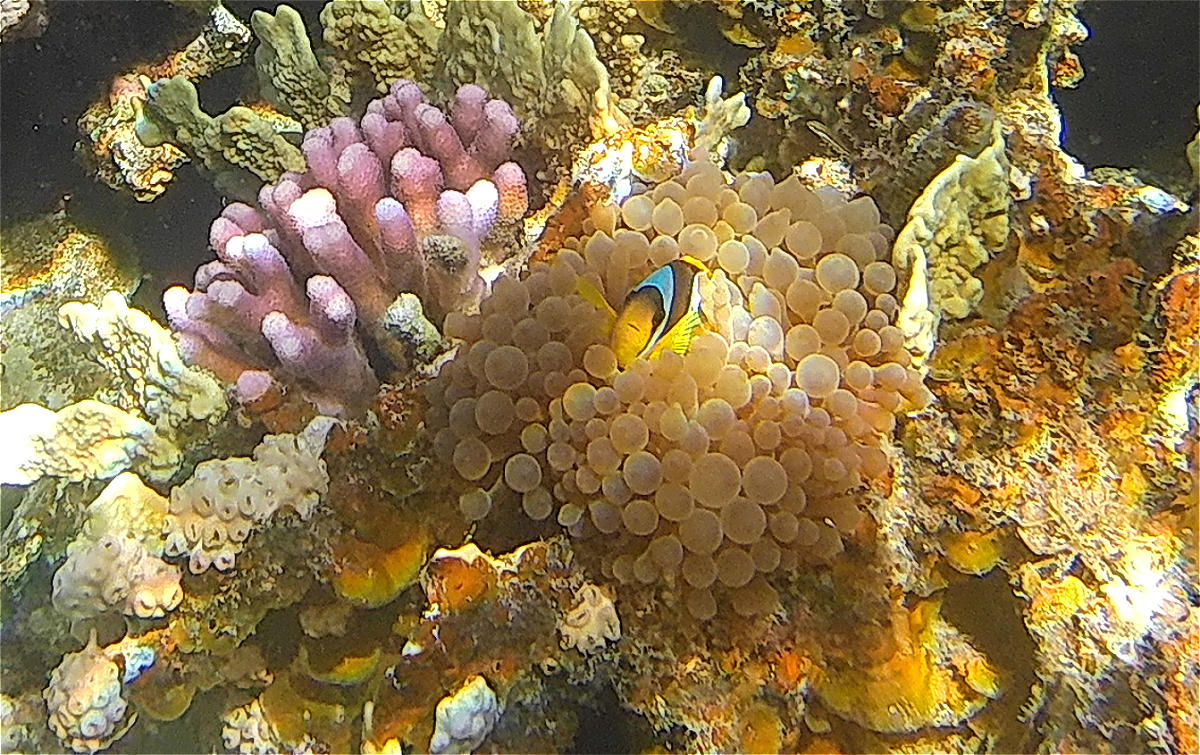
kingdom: Animalia
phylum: Cnidaria
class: Anthozoa
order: Actiniaria
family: Actiniidae
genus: Entacmaea
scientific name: Entacmaea quadricolor
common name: Bulb tentacle sea anemone
